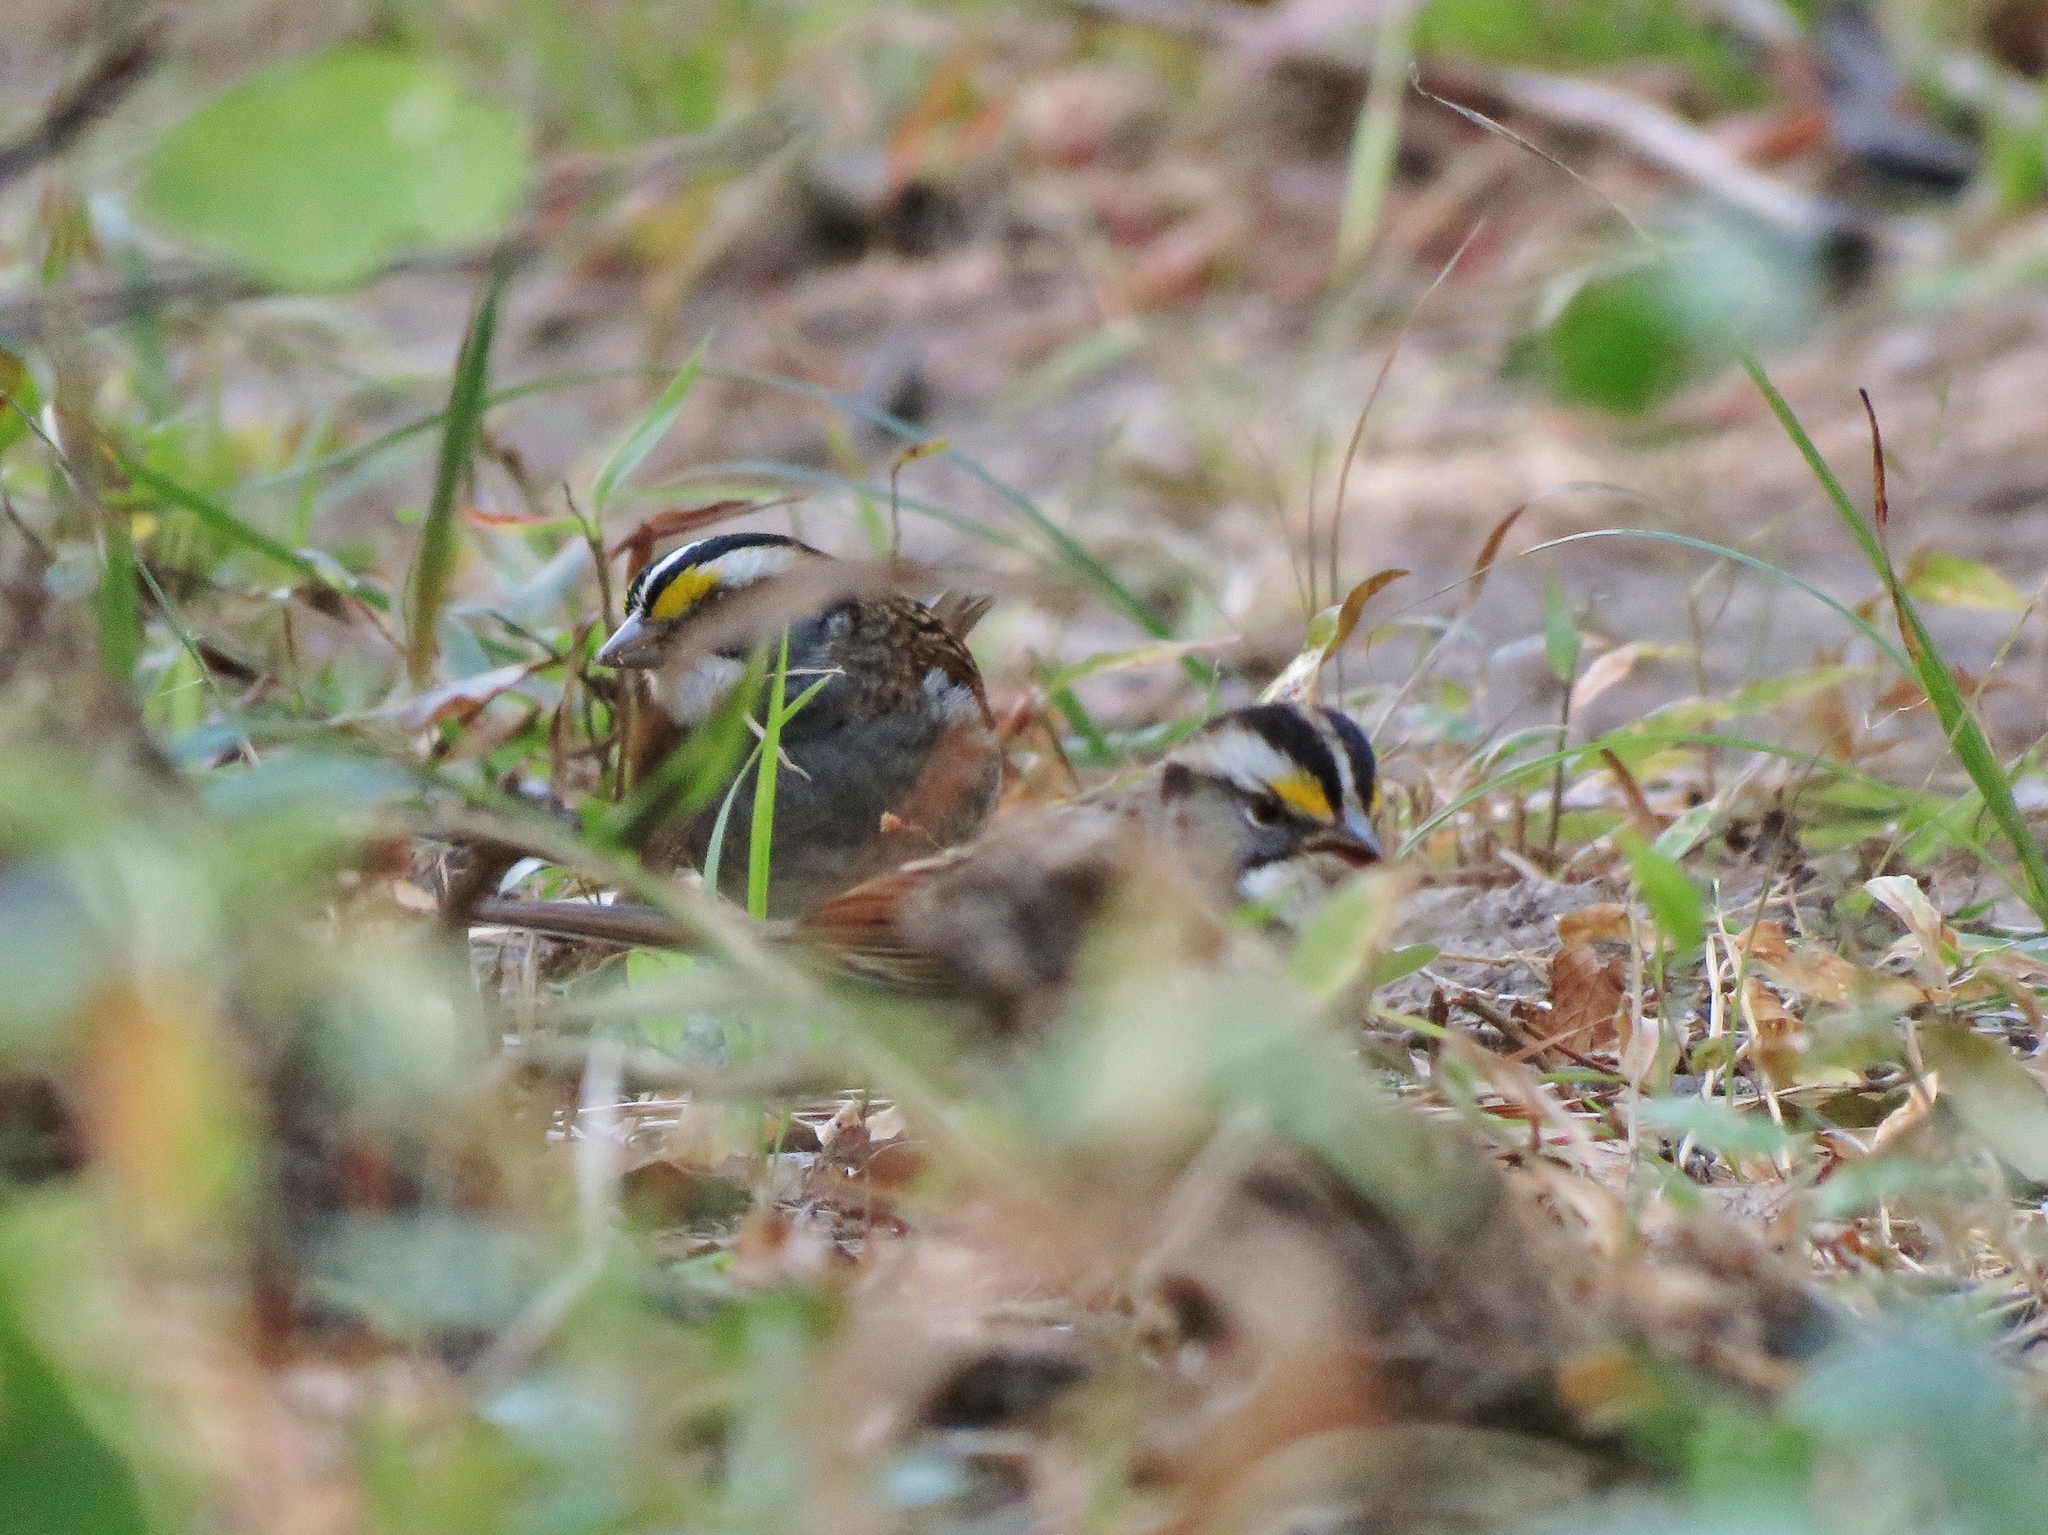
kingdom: Animalia
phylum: Chordata
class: Aves
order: Passeriformes
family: Passerellidae
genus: Zonotrichia
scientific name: Zonotrichia albicollis
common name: White-throated sparrow
